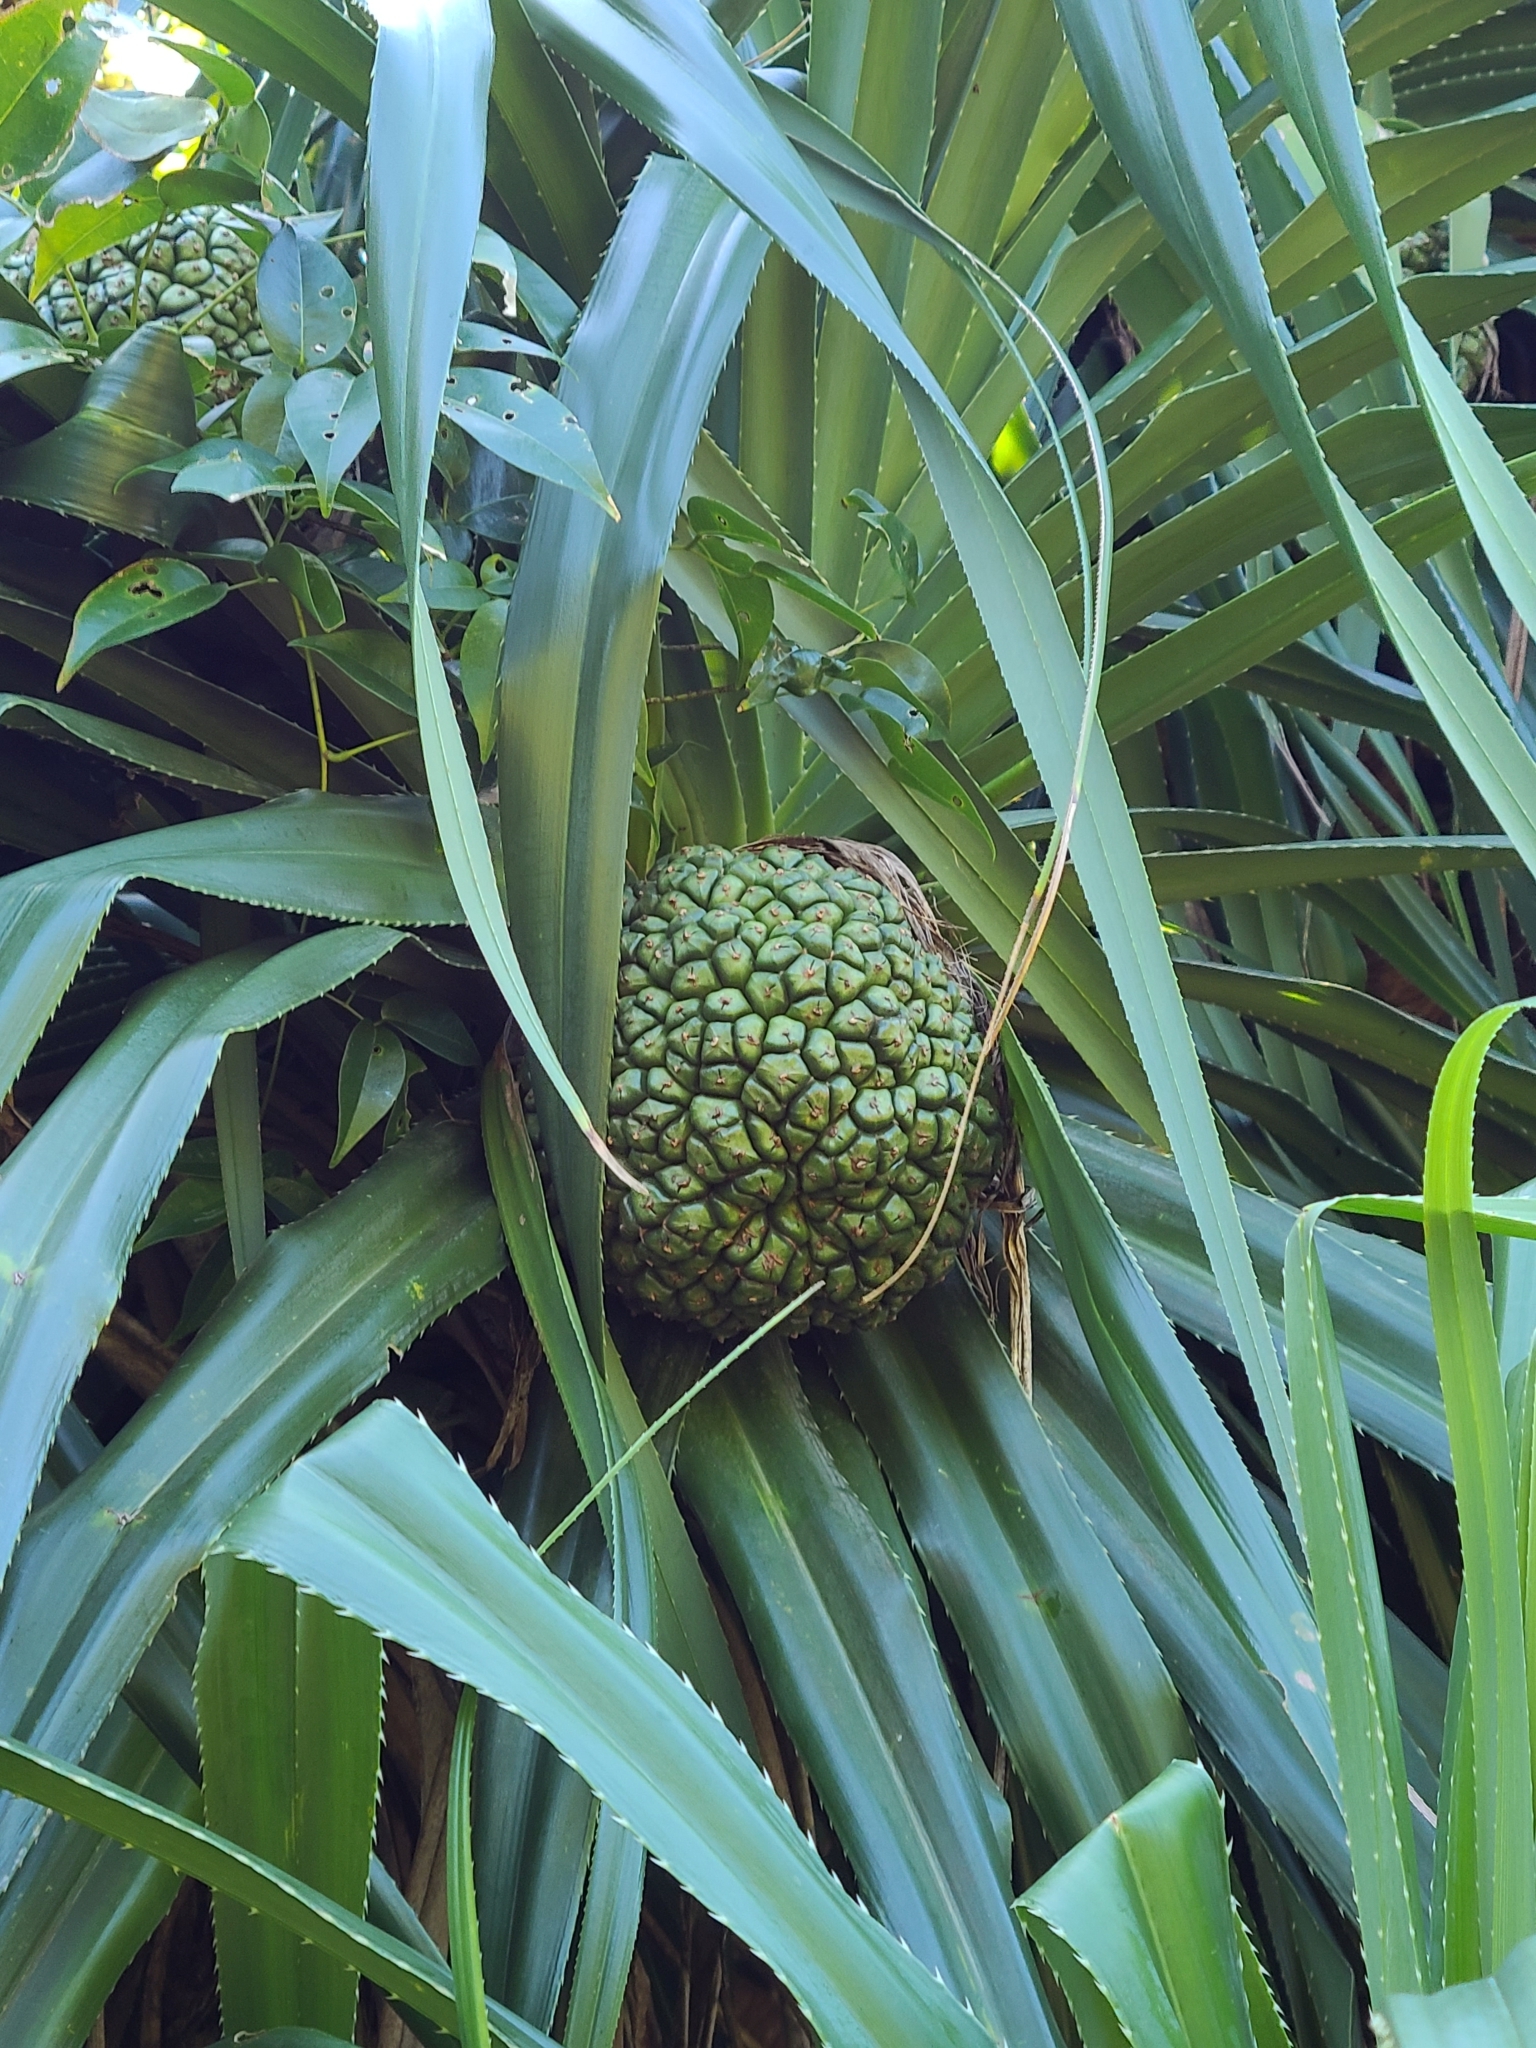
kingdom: Plantae
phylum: Tracheophyta
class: Liliopsida
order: Pandanales
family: Pandanaceae
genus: Pandanus
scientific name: Pandanus odorifer
